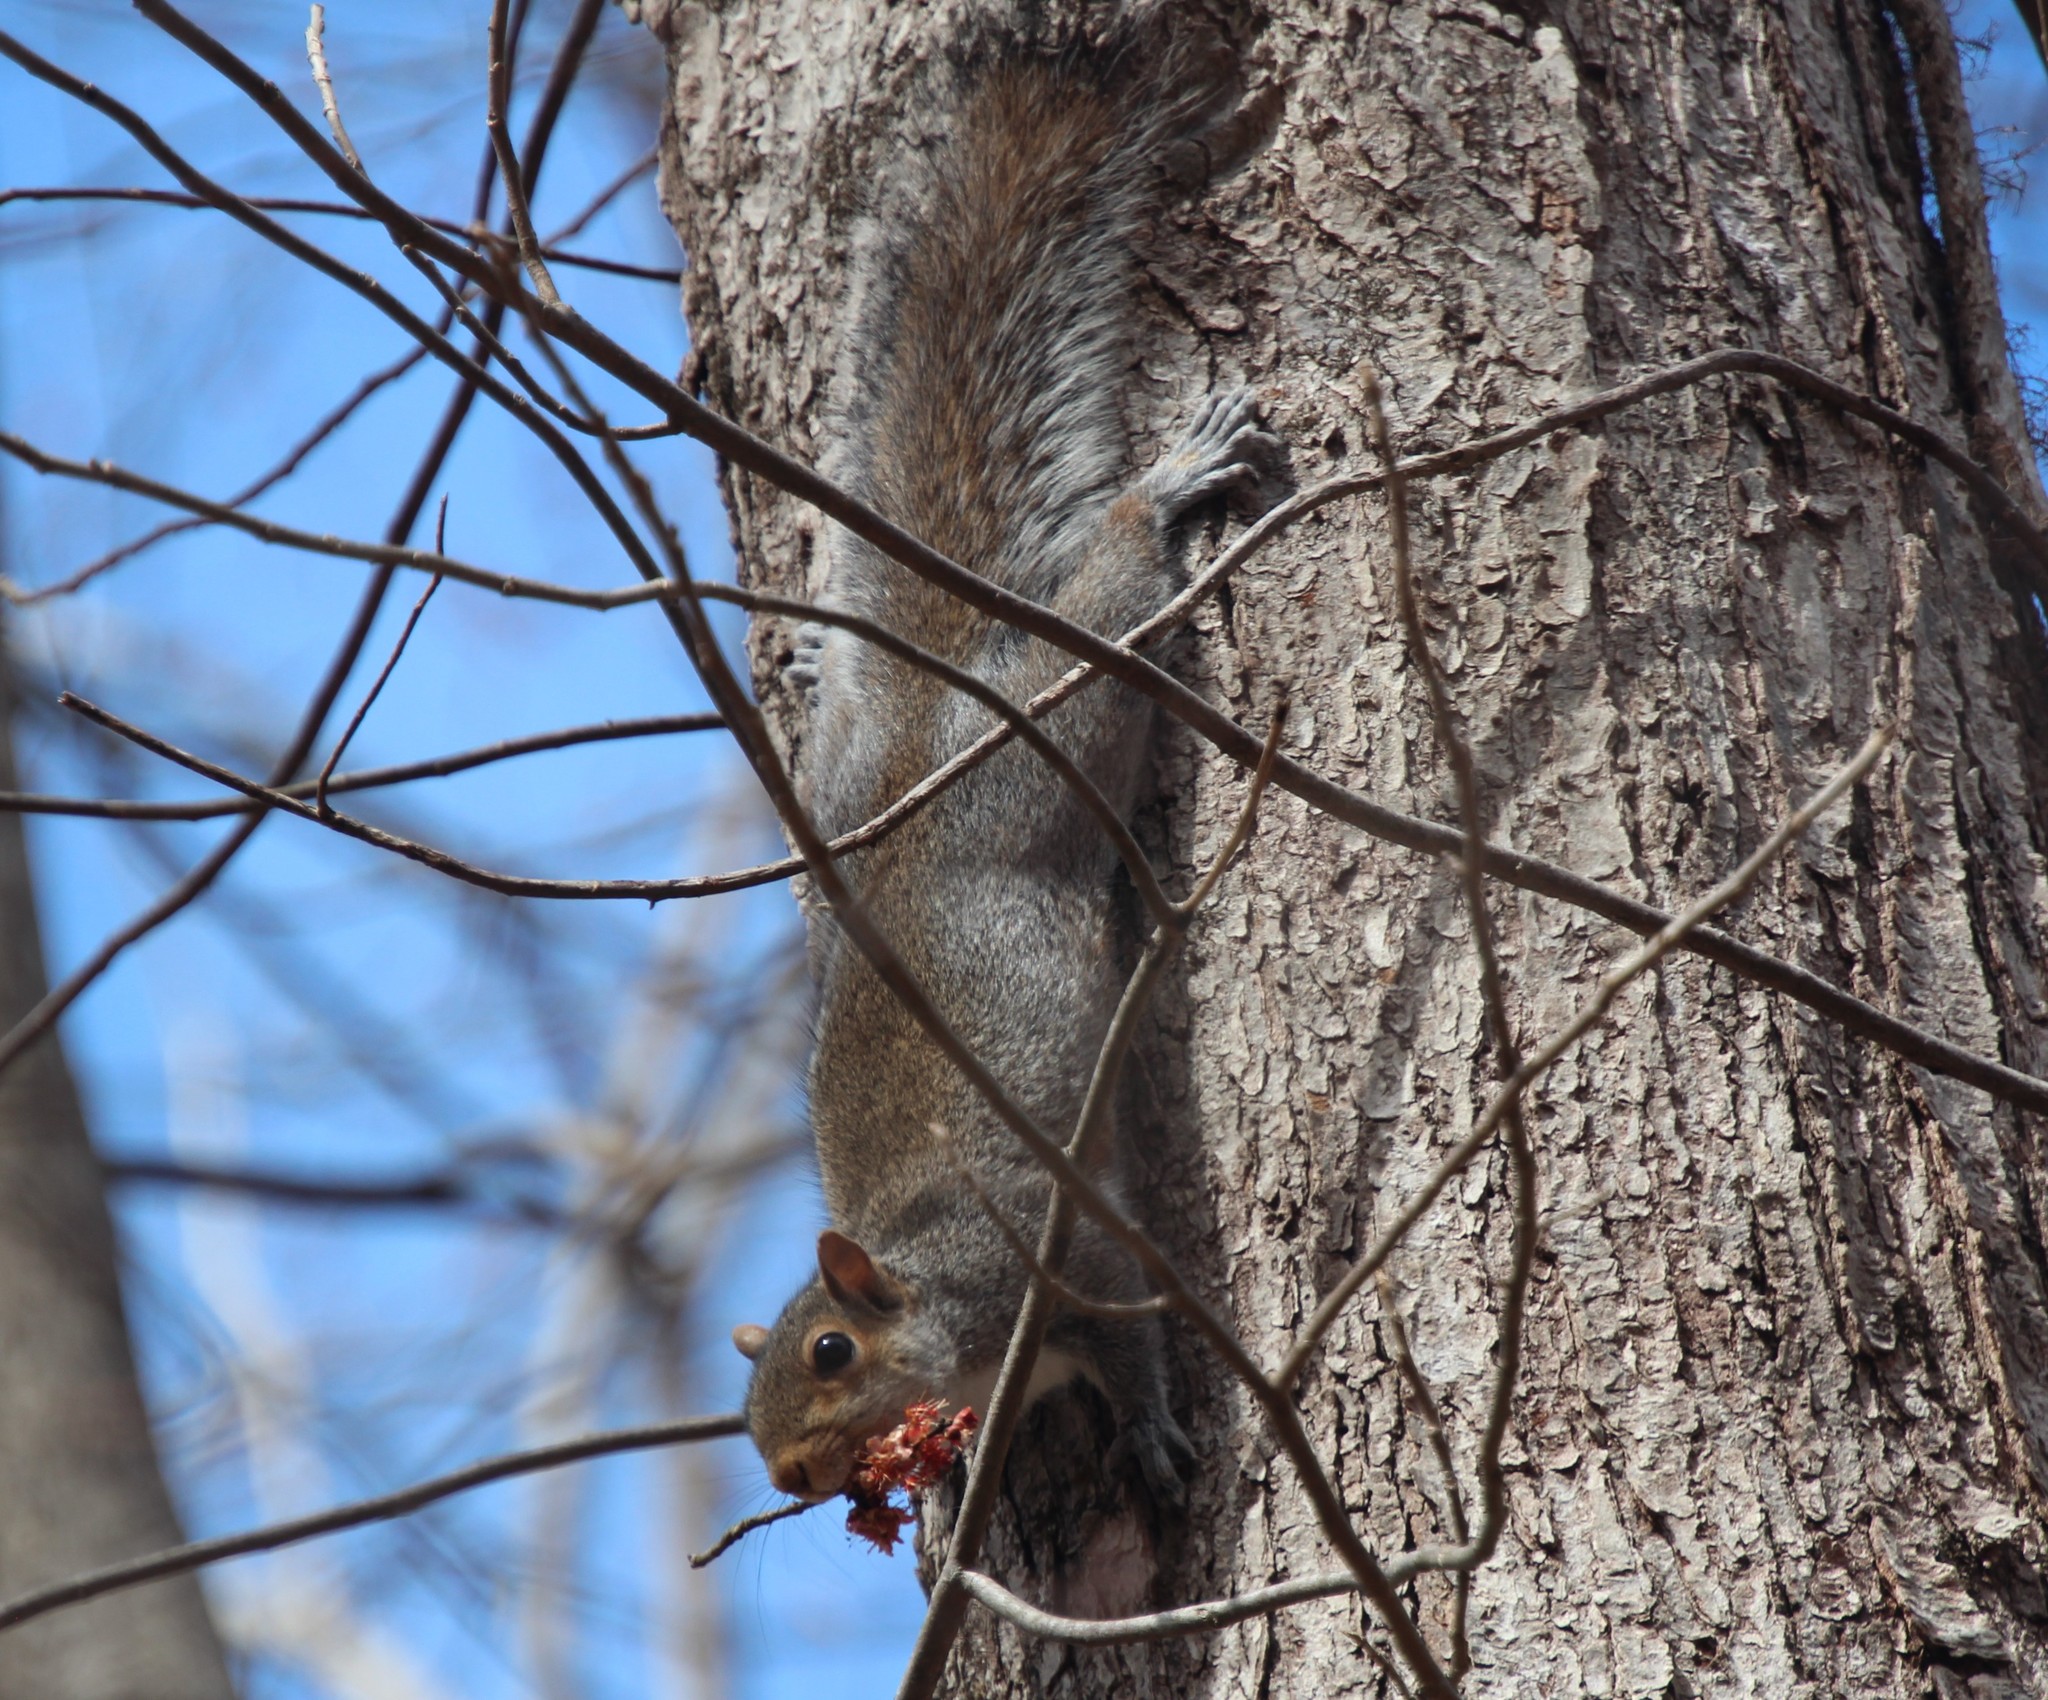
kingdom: Animalia
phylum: Chordata
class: Mammalia
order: Rodentia
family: Sciuridae
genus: Sciurus
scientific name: Sciurus carolinensis
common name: Eastern gray squirrel
